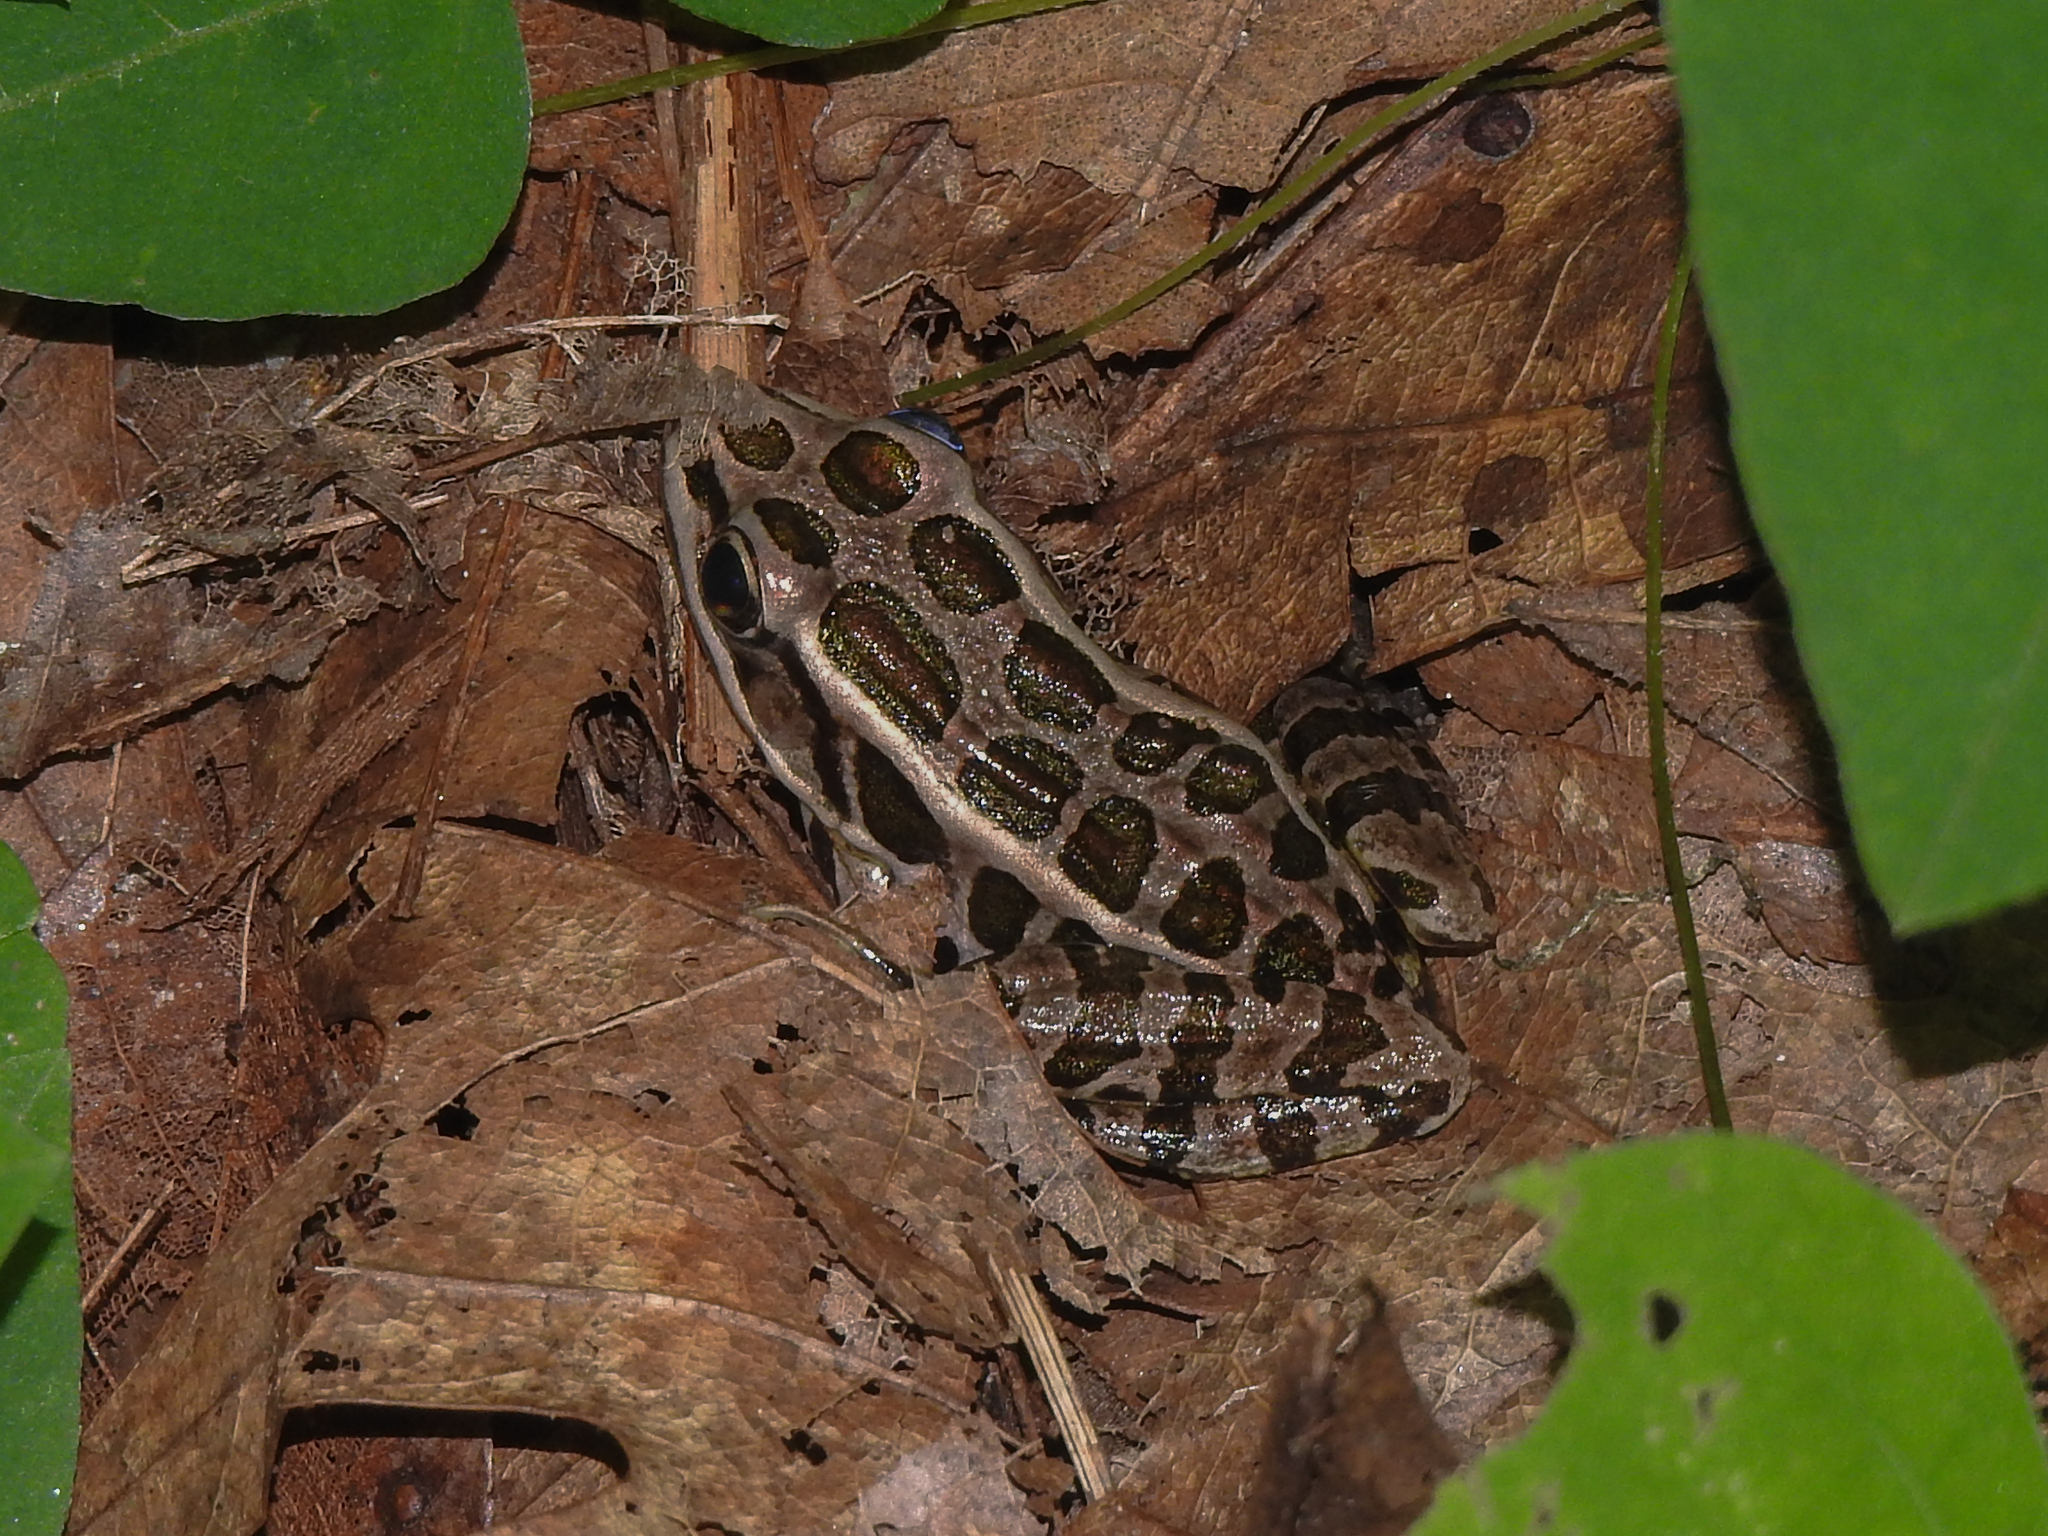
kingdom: Animalia
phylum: Chordata
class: Amphibia
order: Anura
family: Ranidae
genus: Lithobates
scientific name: Lithobates palustris
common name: Pickerel frog
